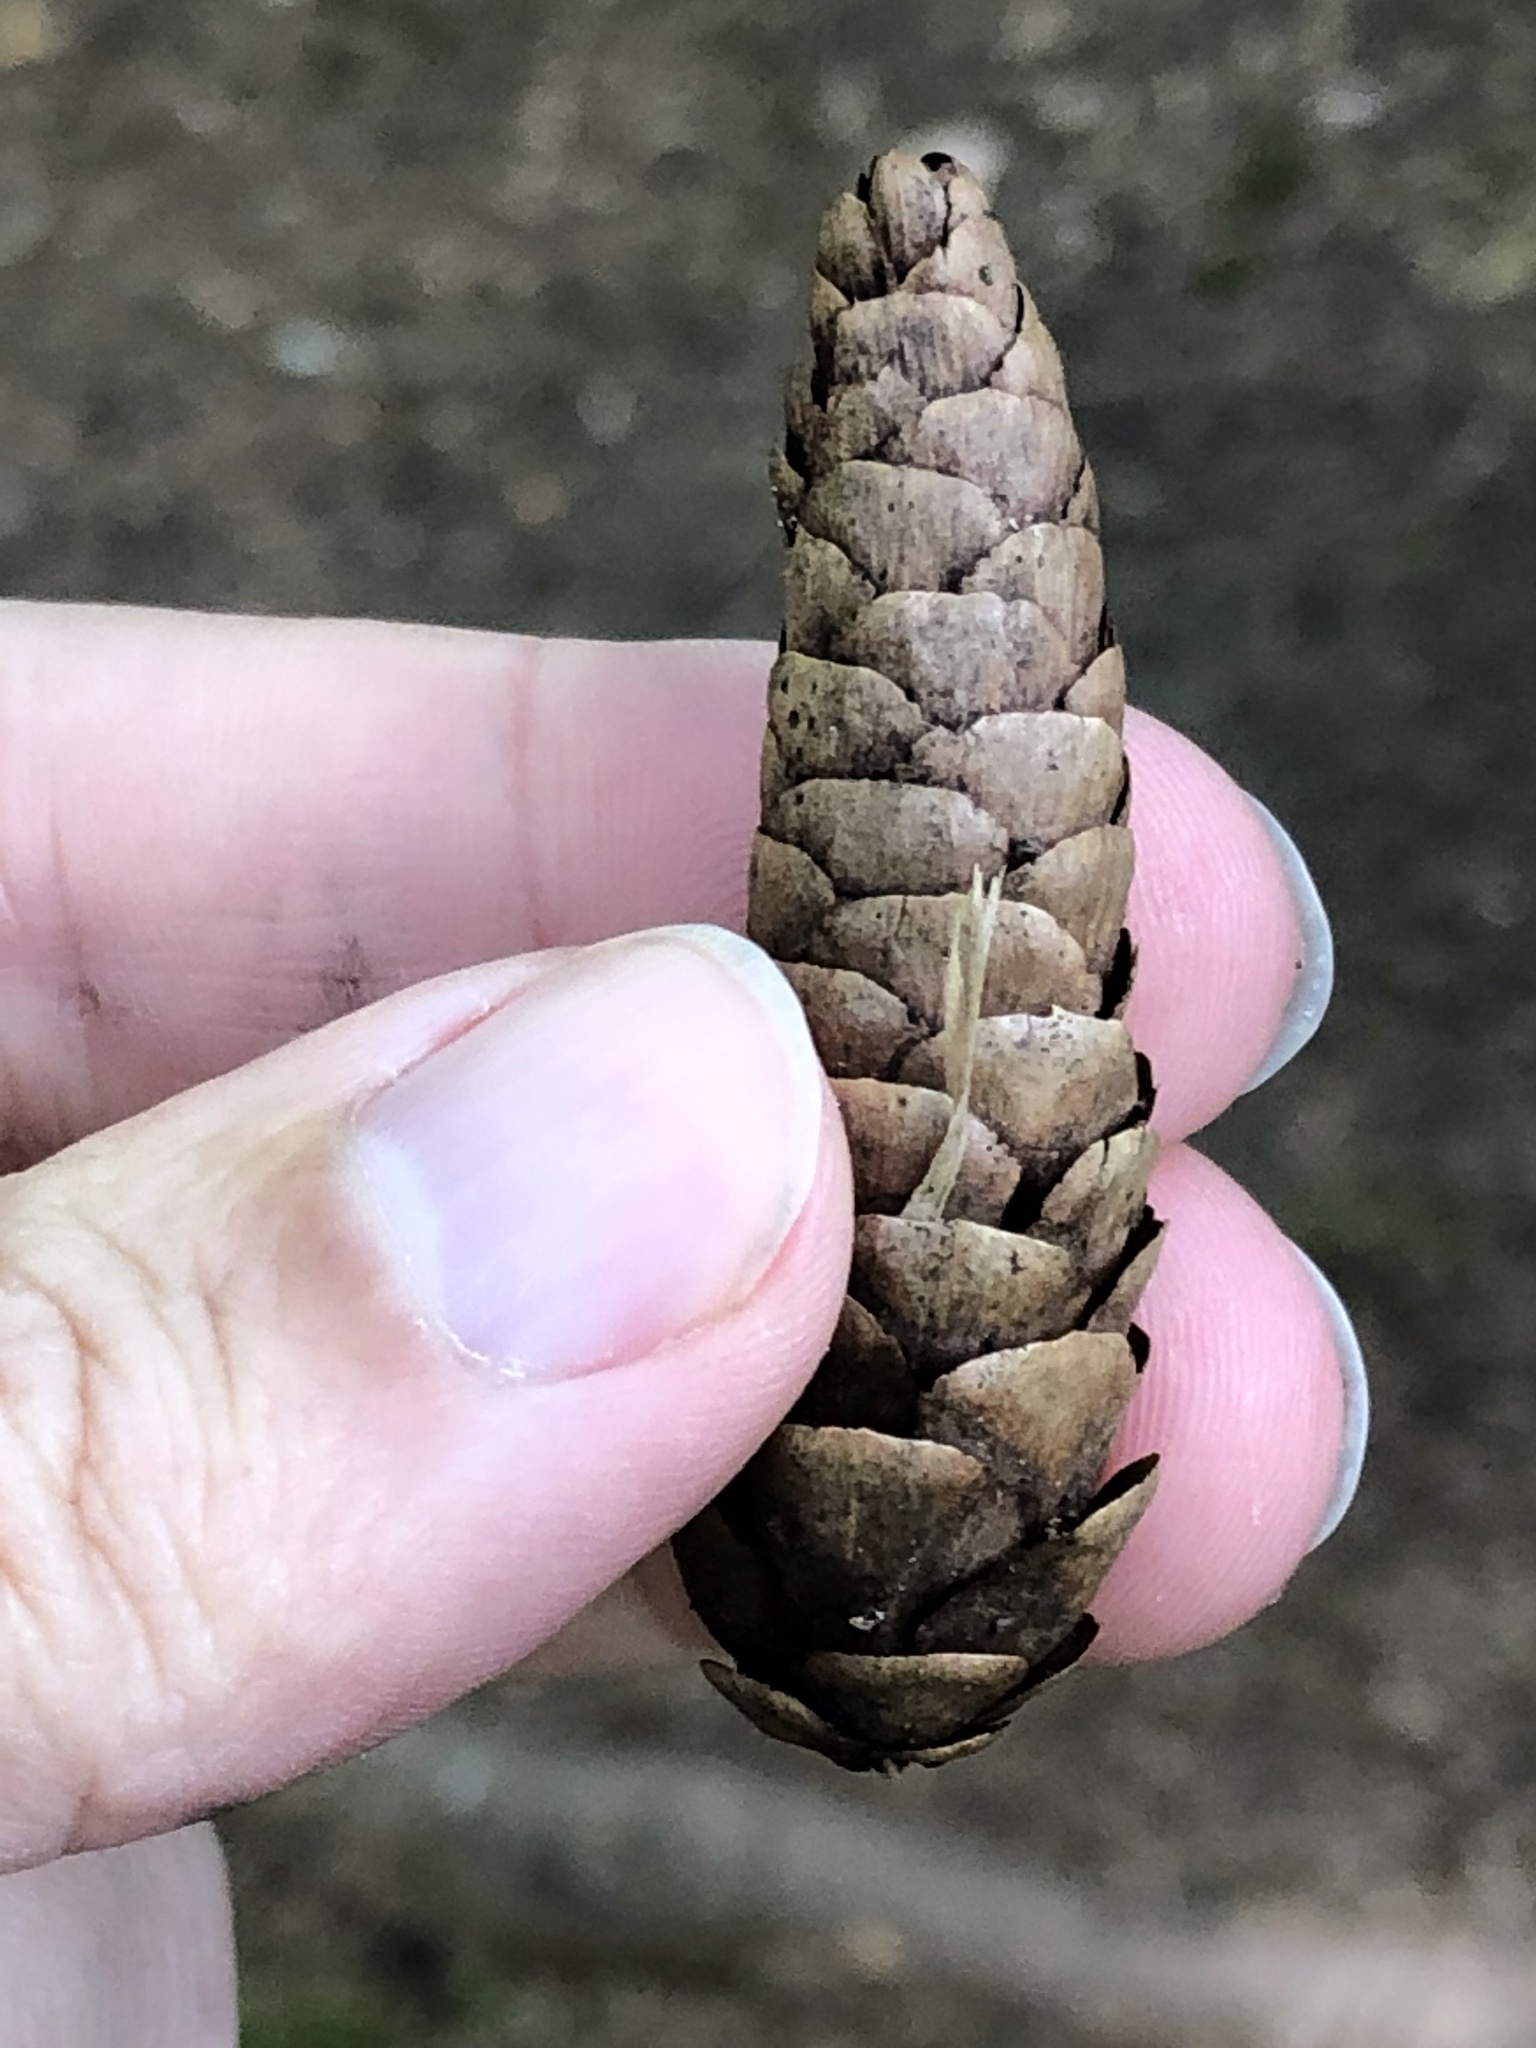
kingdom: Plantae
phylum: Tracheophyta
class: Pinopsida
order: Pinales
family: Pinaceae
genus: Picea
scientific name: Picea glauca
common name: White spruce
